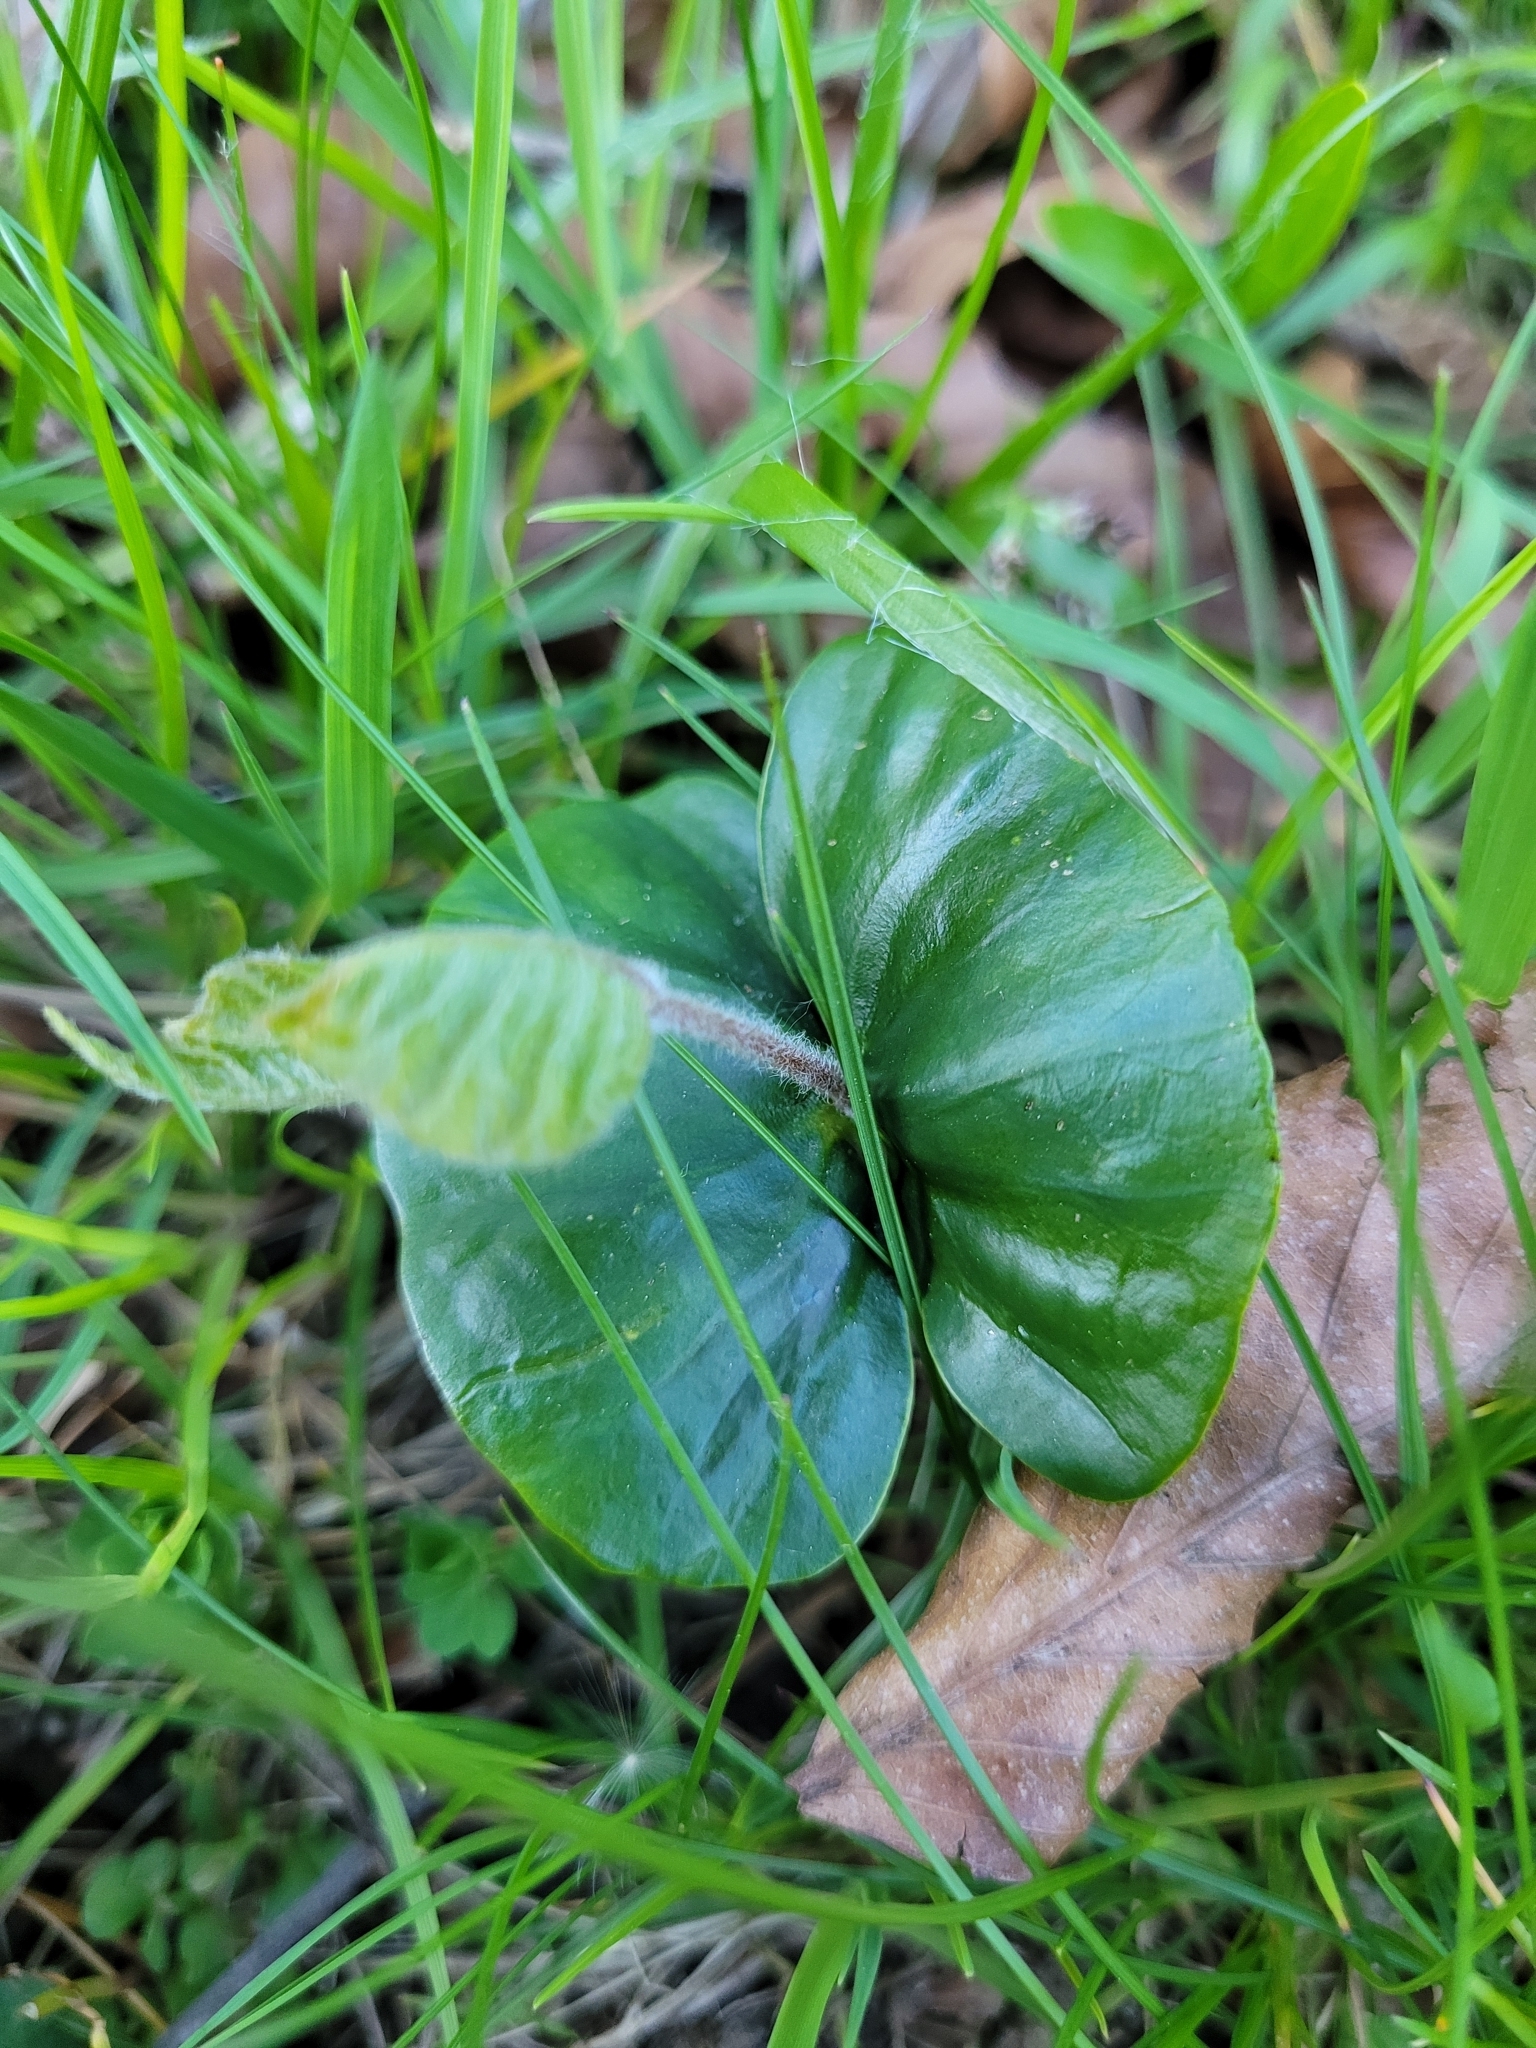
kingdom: Plantae
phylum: Tracheophyta
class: Magnoliopsida
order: Fagales
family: Fagaceae
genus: Fagus
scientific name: Fagus sylvatica
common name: Beech
